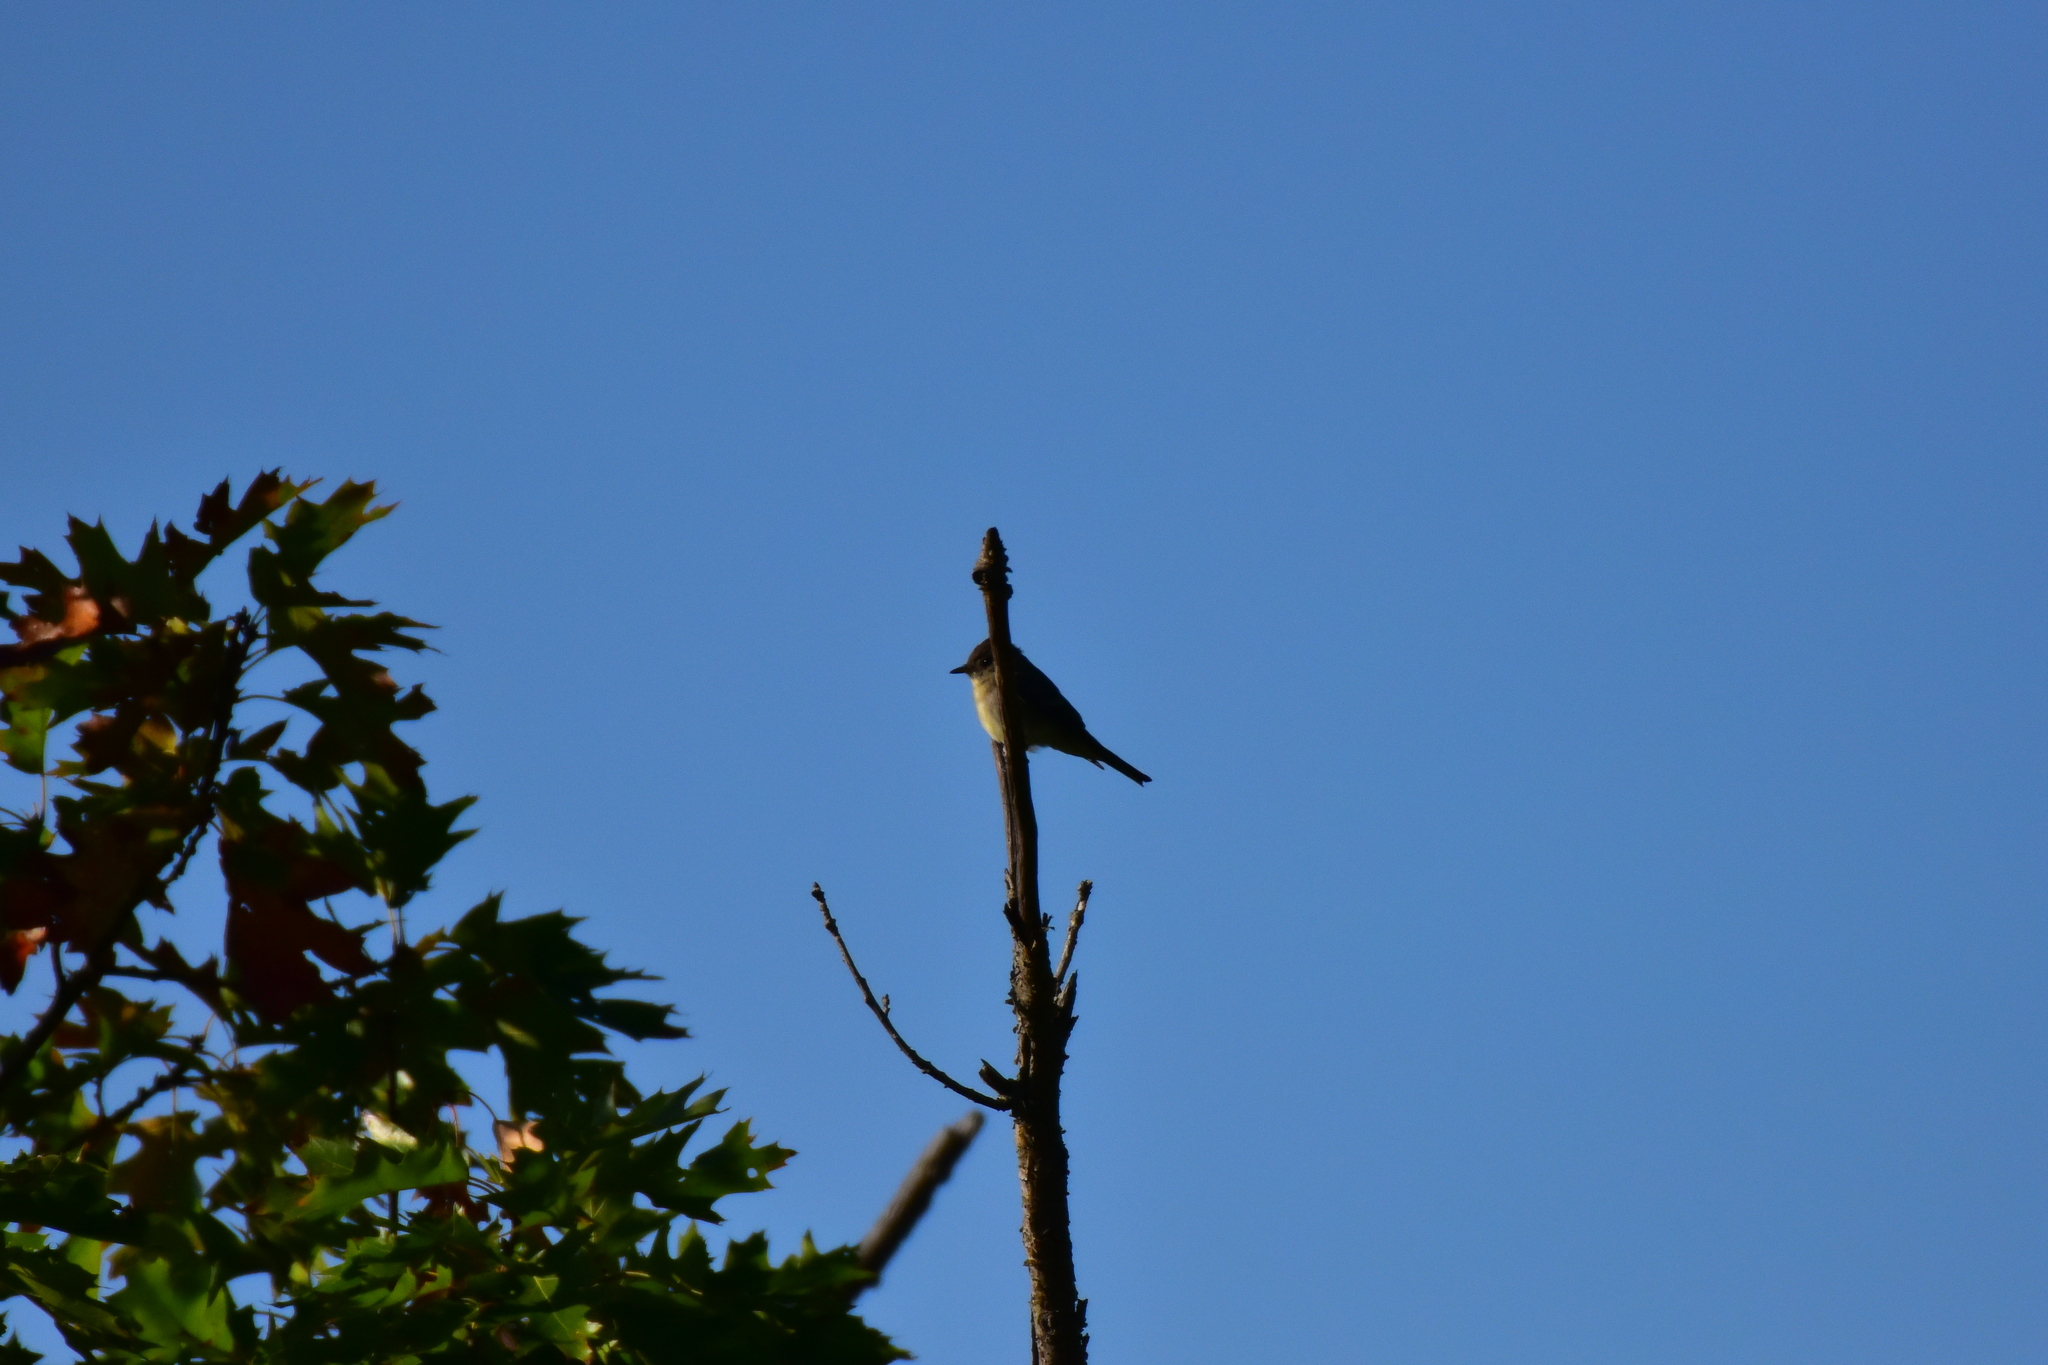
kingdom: Animalia
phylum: Chordata
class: Aves
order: Passeriformes
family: Tyrannidae
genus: Sayornis
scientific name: Sayornis phoebe
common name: Eastern phoebe
